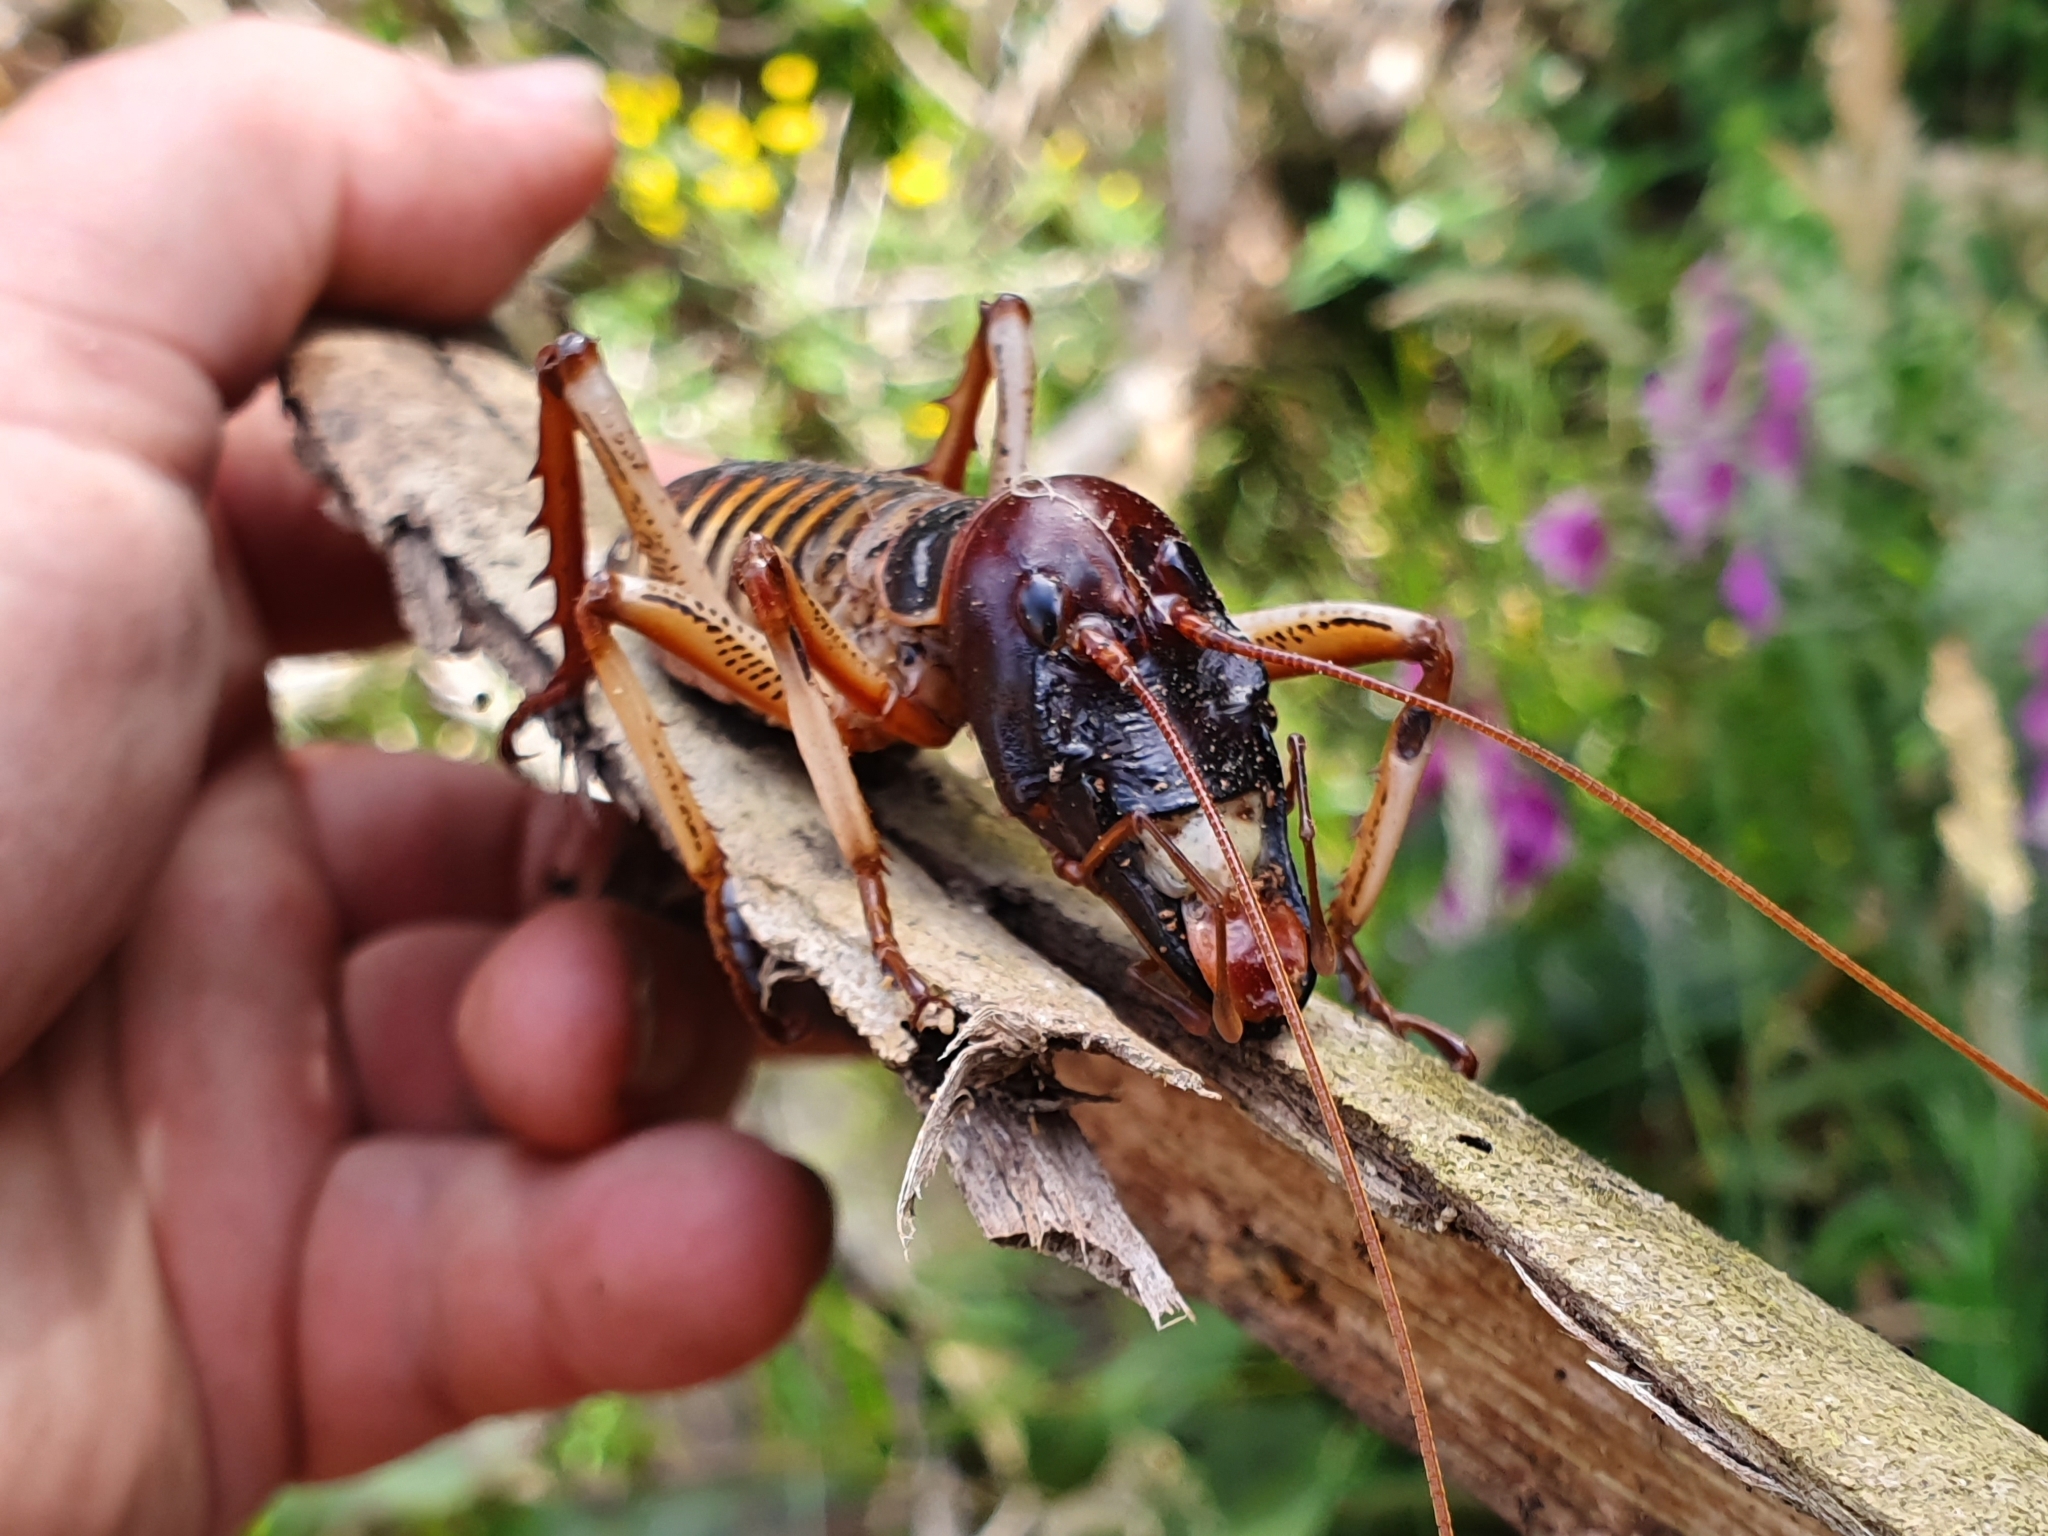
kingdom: Animalia
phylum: Arthropoda
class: Insecta
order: Orthoptera
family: Anostostomatidae
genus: Hemideina
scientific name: Hemideina crassidens
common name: Wellington tree weta
